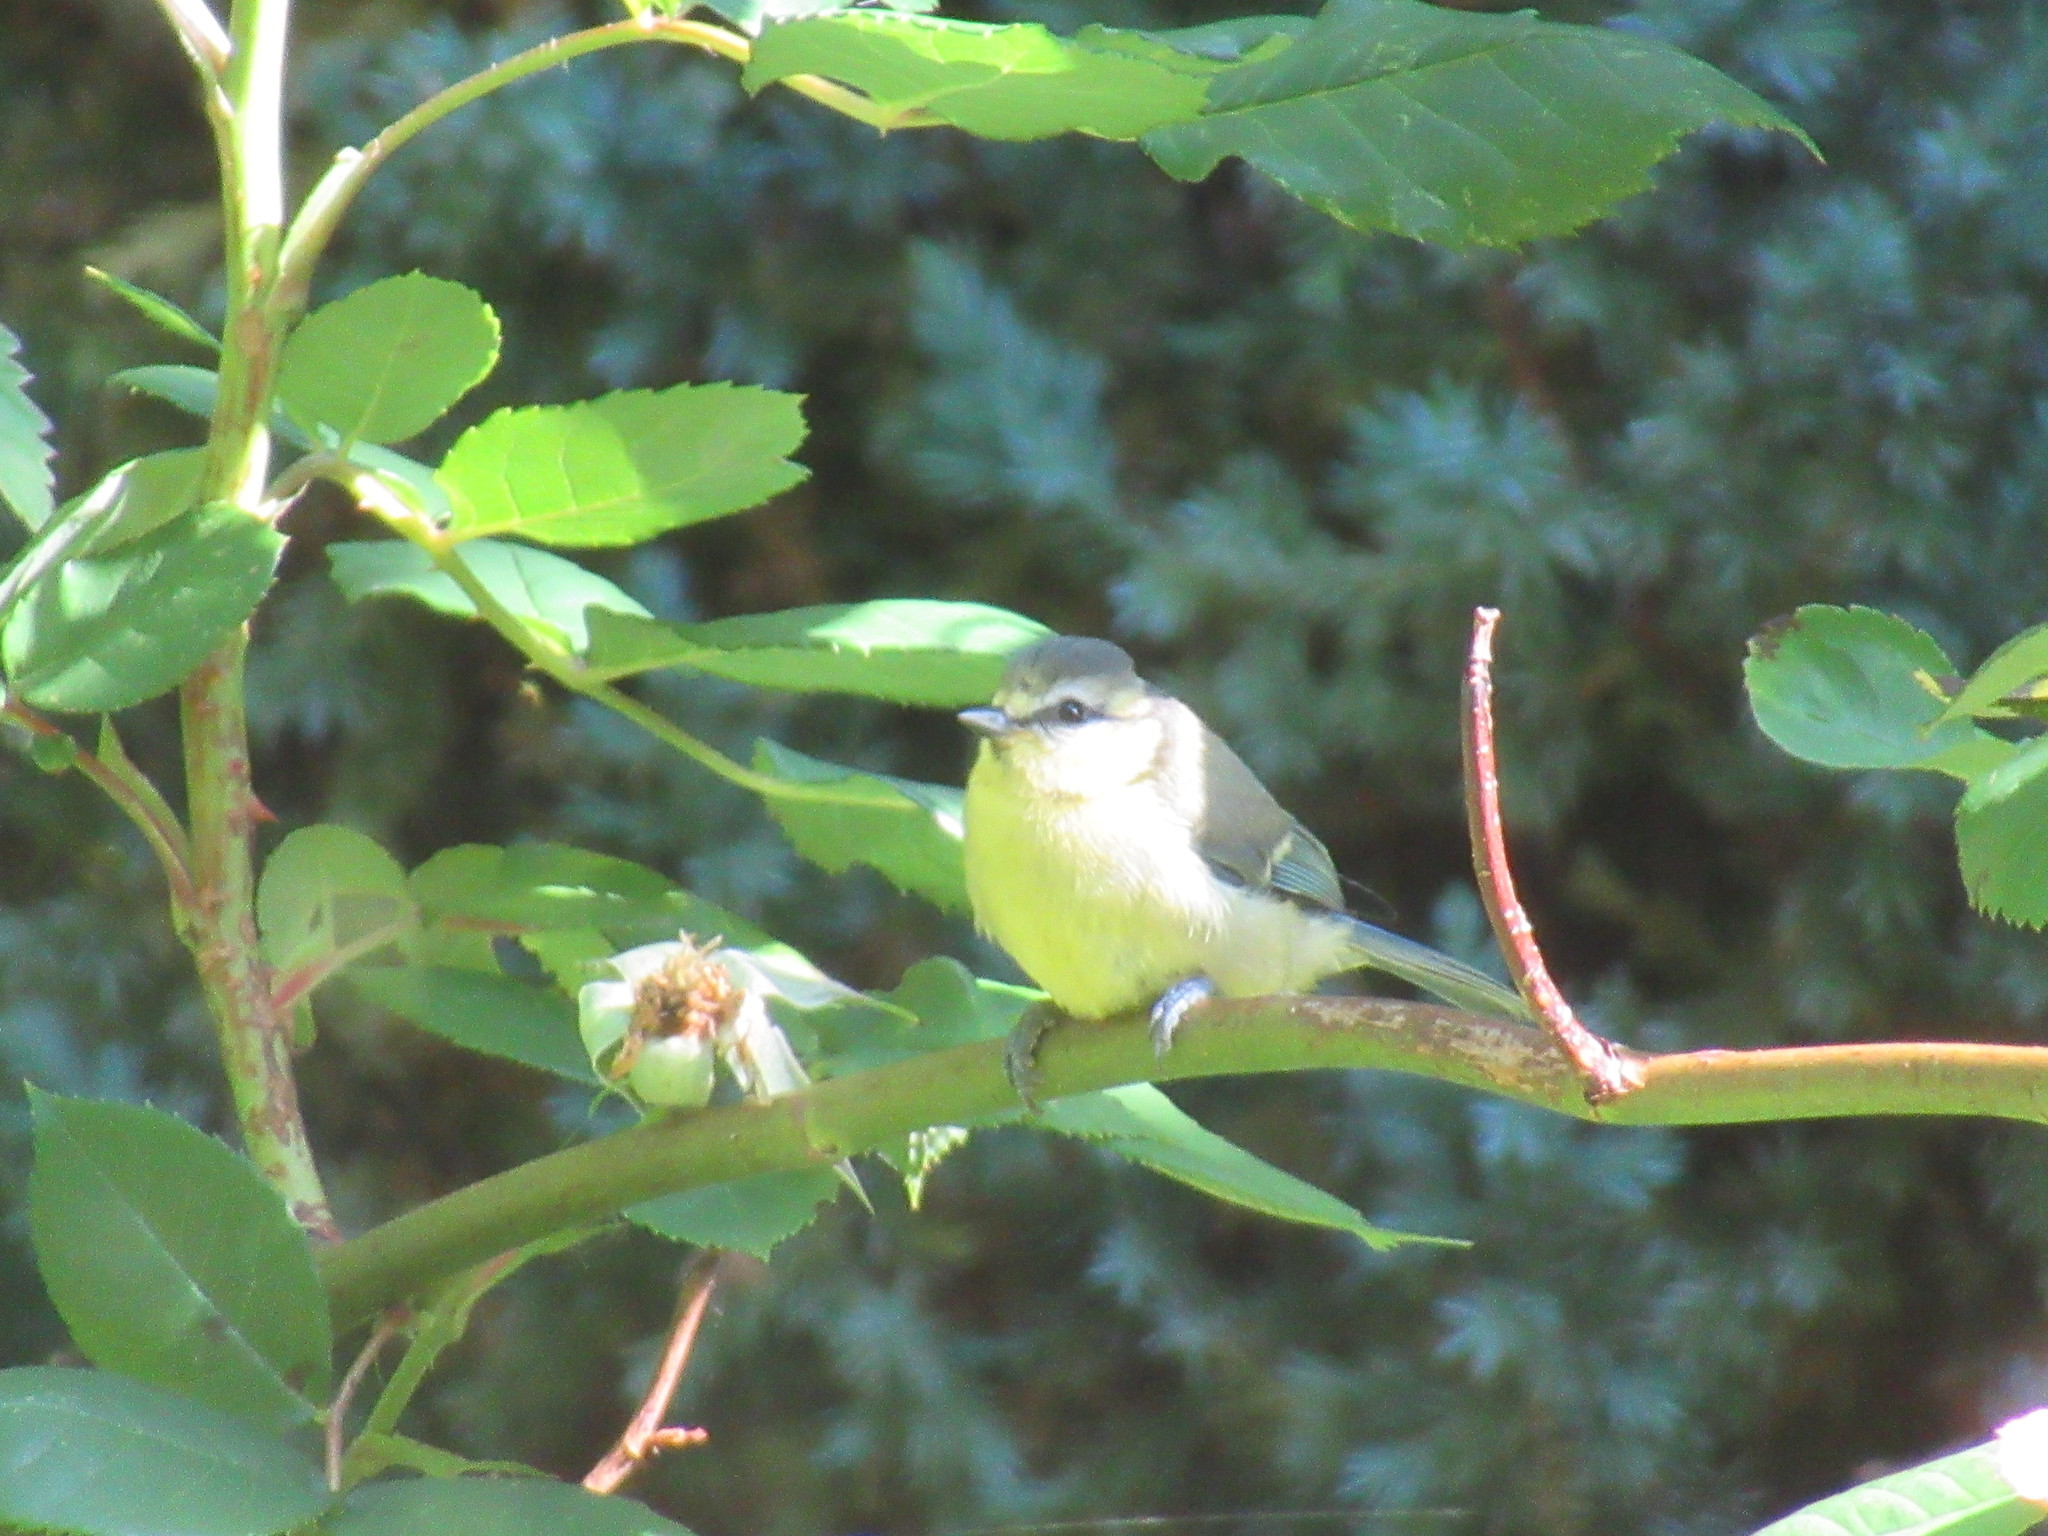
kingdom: Animalia
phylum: Chordata
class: Aves
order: Passeriformes
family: Paridae
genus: Cyanistes
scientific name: Cyanistes caeruleus
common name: Eurasian blue tit
